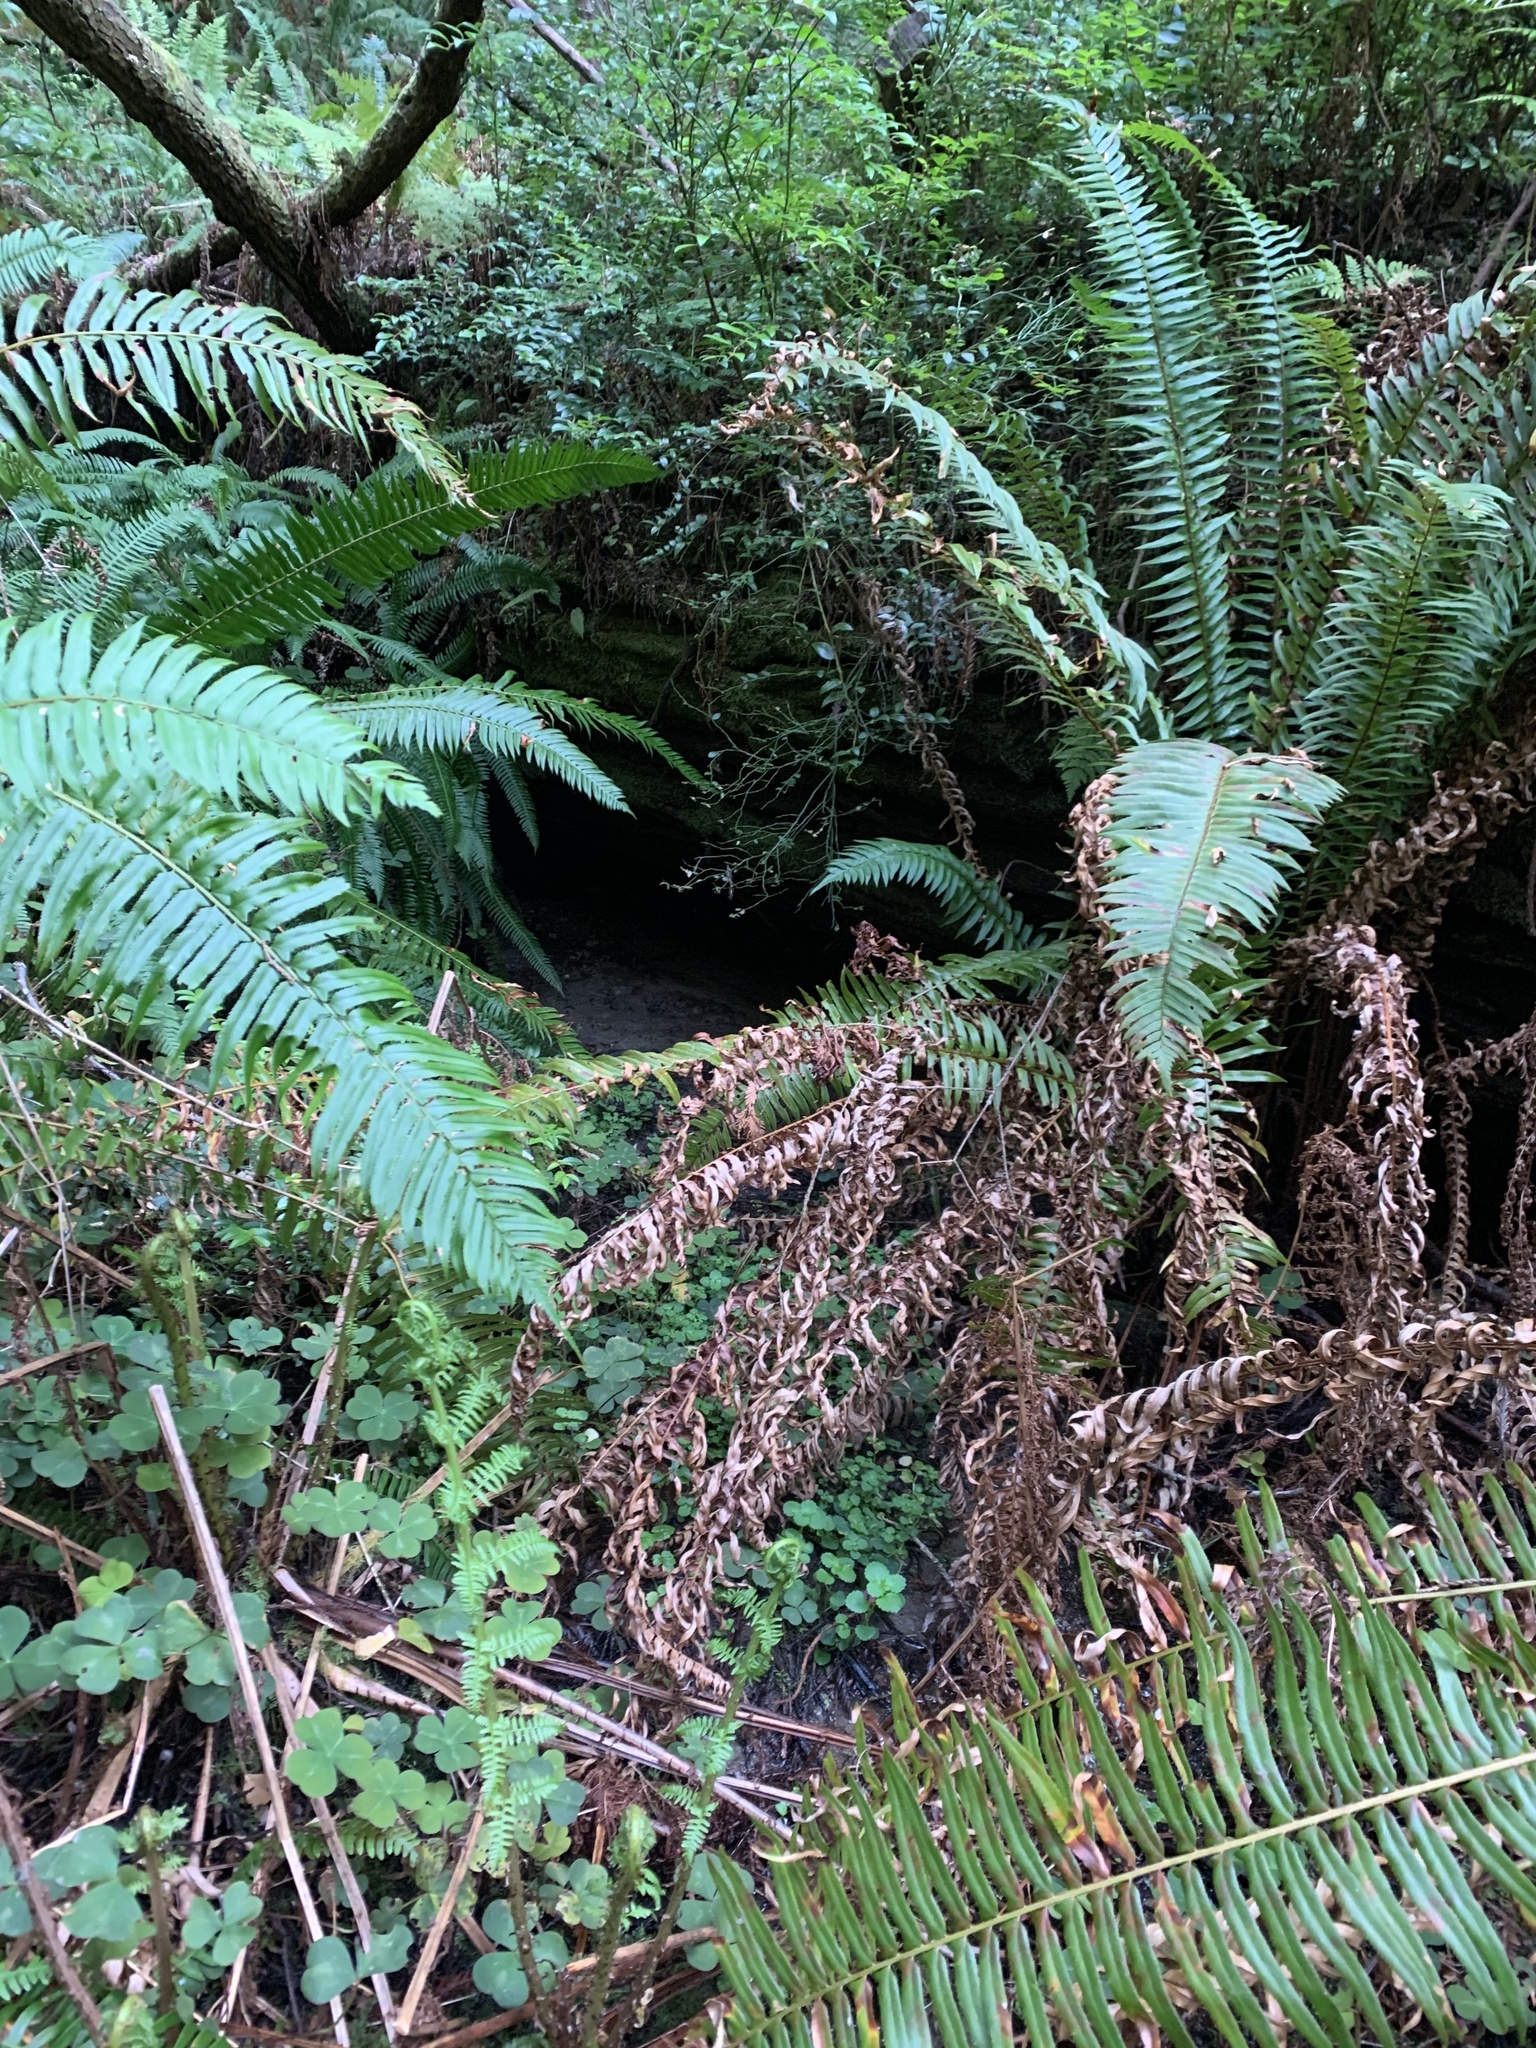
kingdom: Plantae
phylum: Tracheophyta
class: Polypodiopsida
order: Polypodiales
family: Dryopteridaceae
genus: Polystichum
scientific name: Polystichum munitum
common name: Western sword-fern
